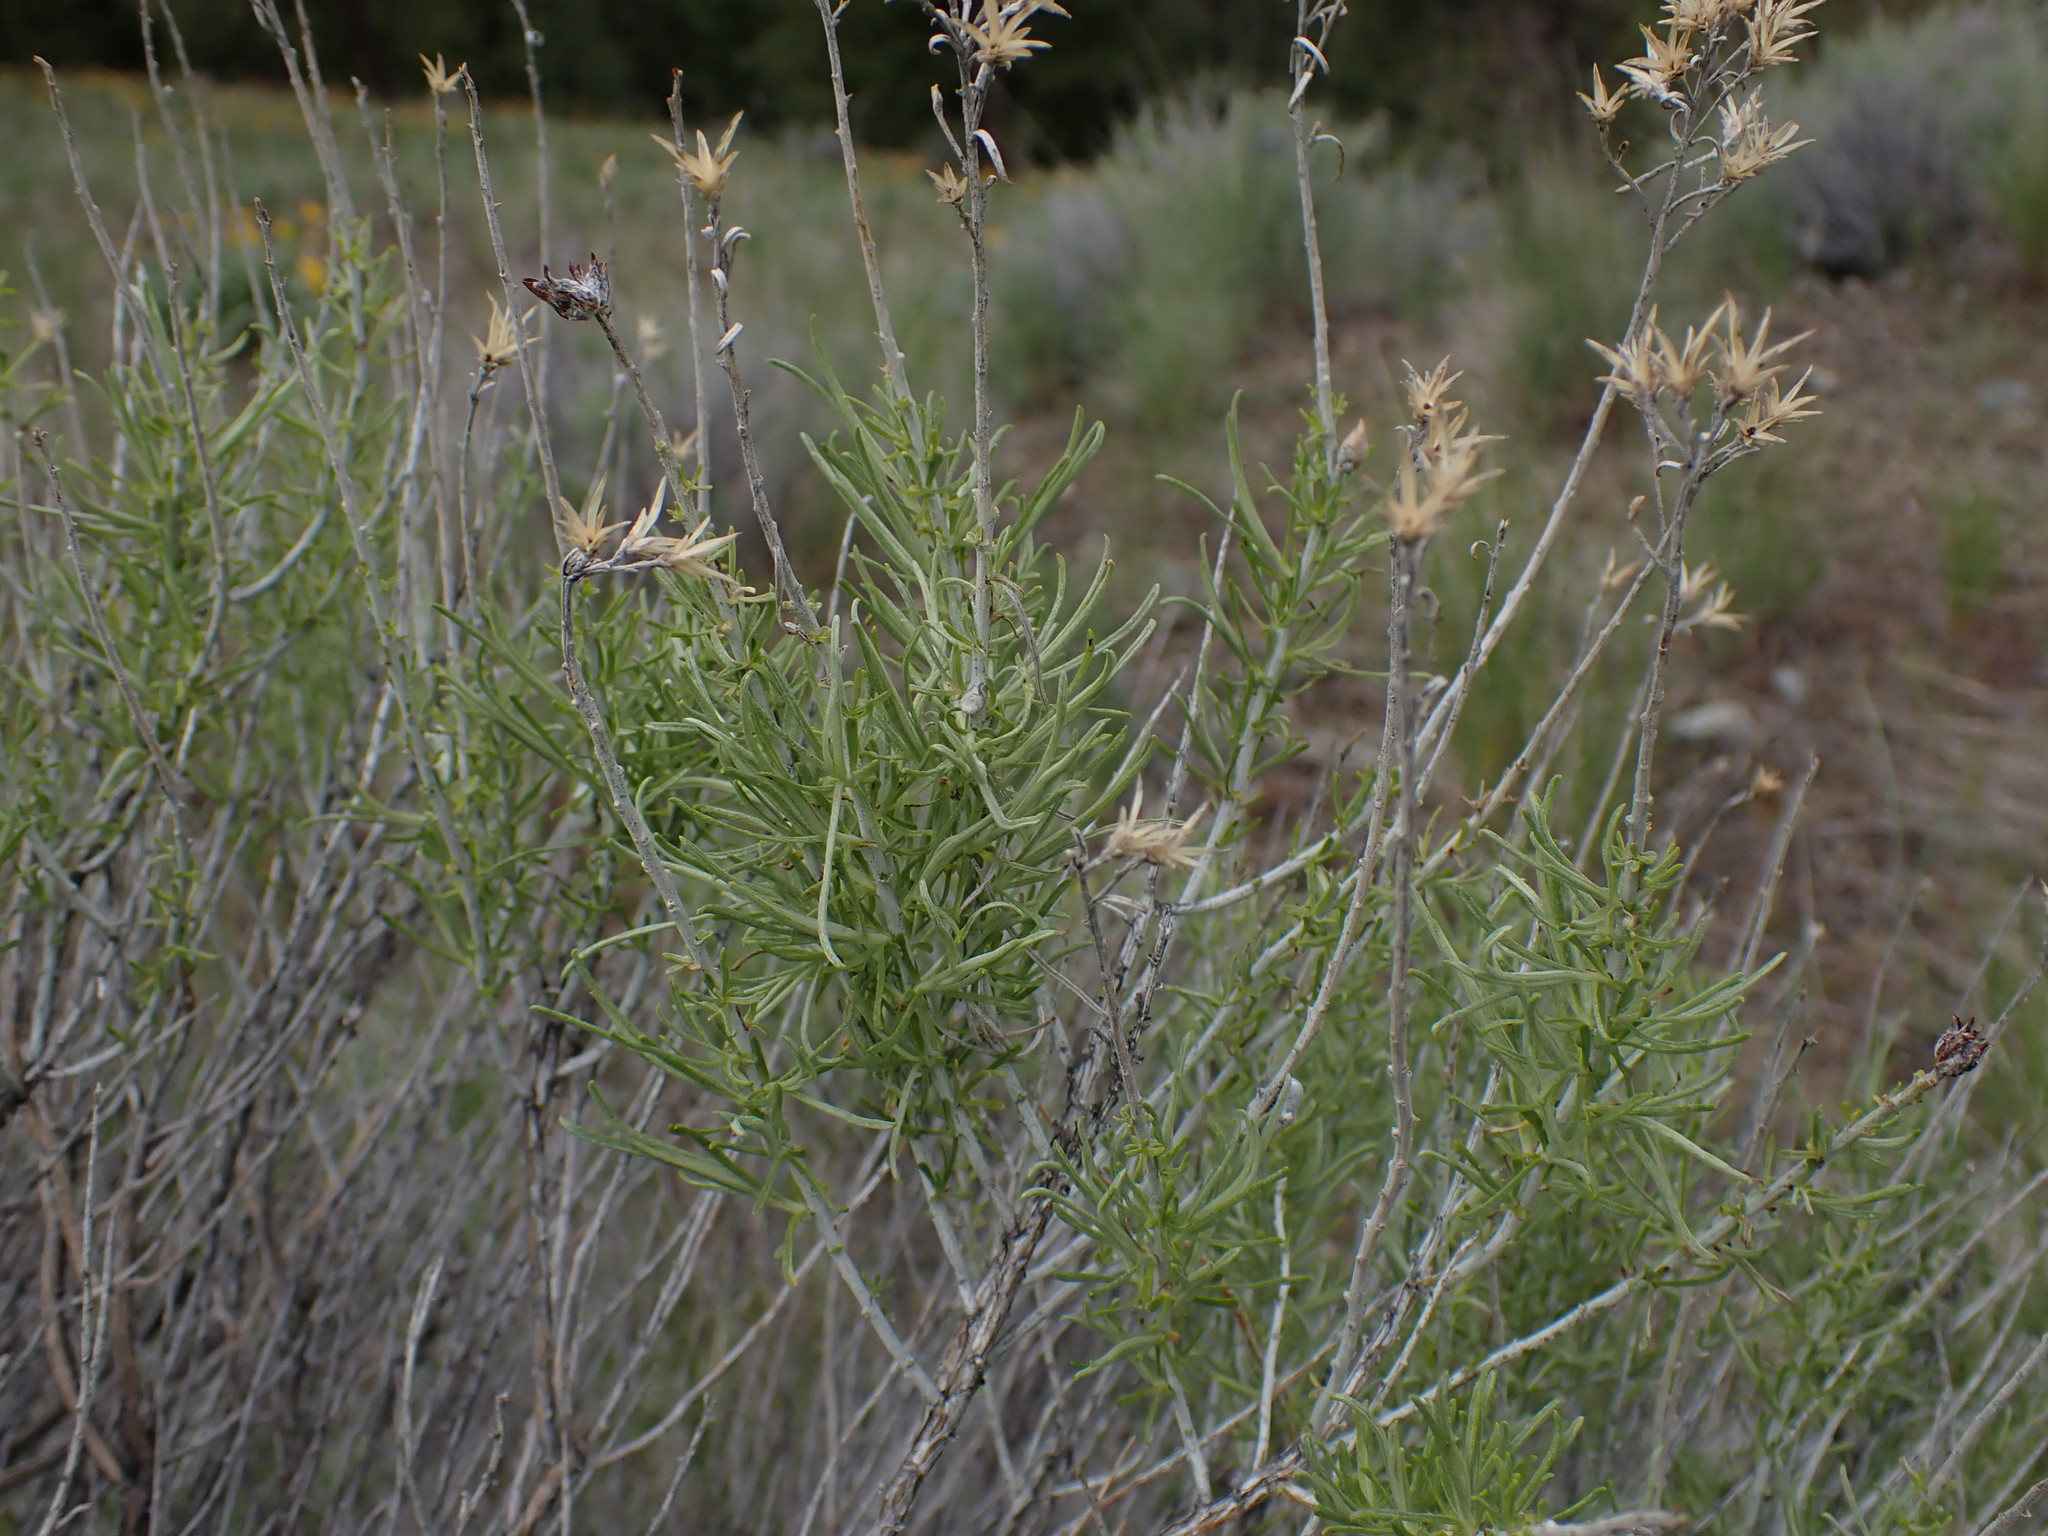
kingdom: Plantae
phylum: Tracheophyta
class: Magnoliopsida
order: Asterales
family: Asteraceae
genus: Ericameria
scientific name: Ericameria nauseosa
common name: Rubber rabbitbrush
